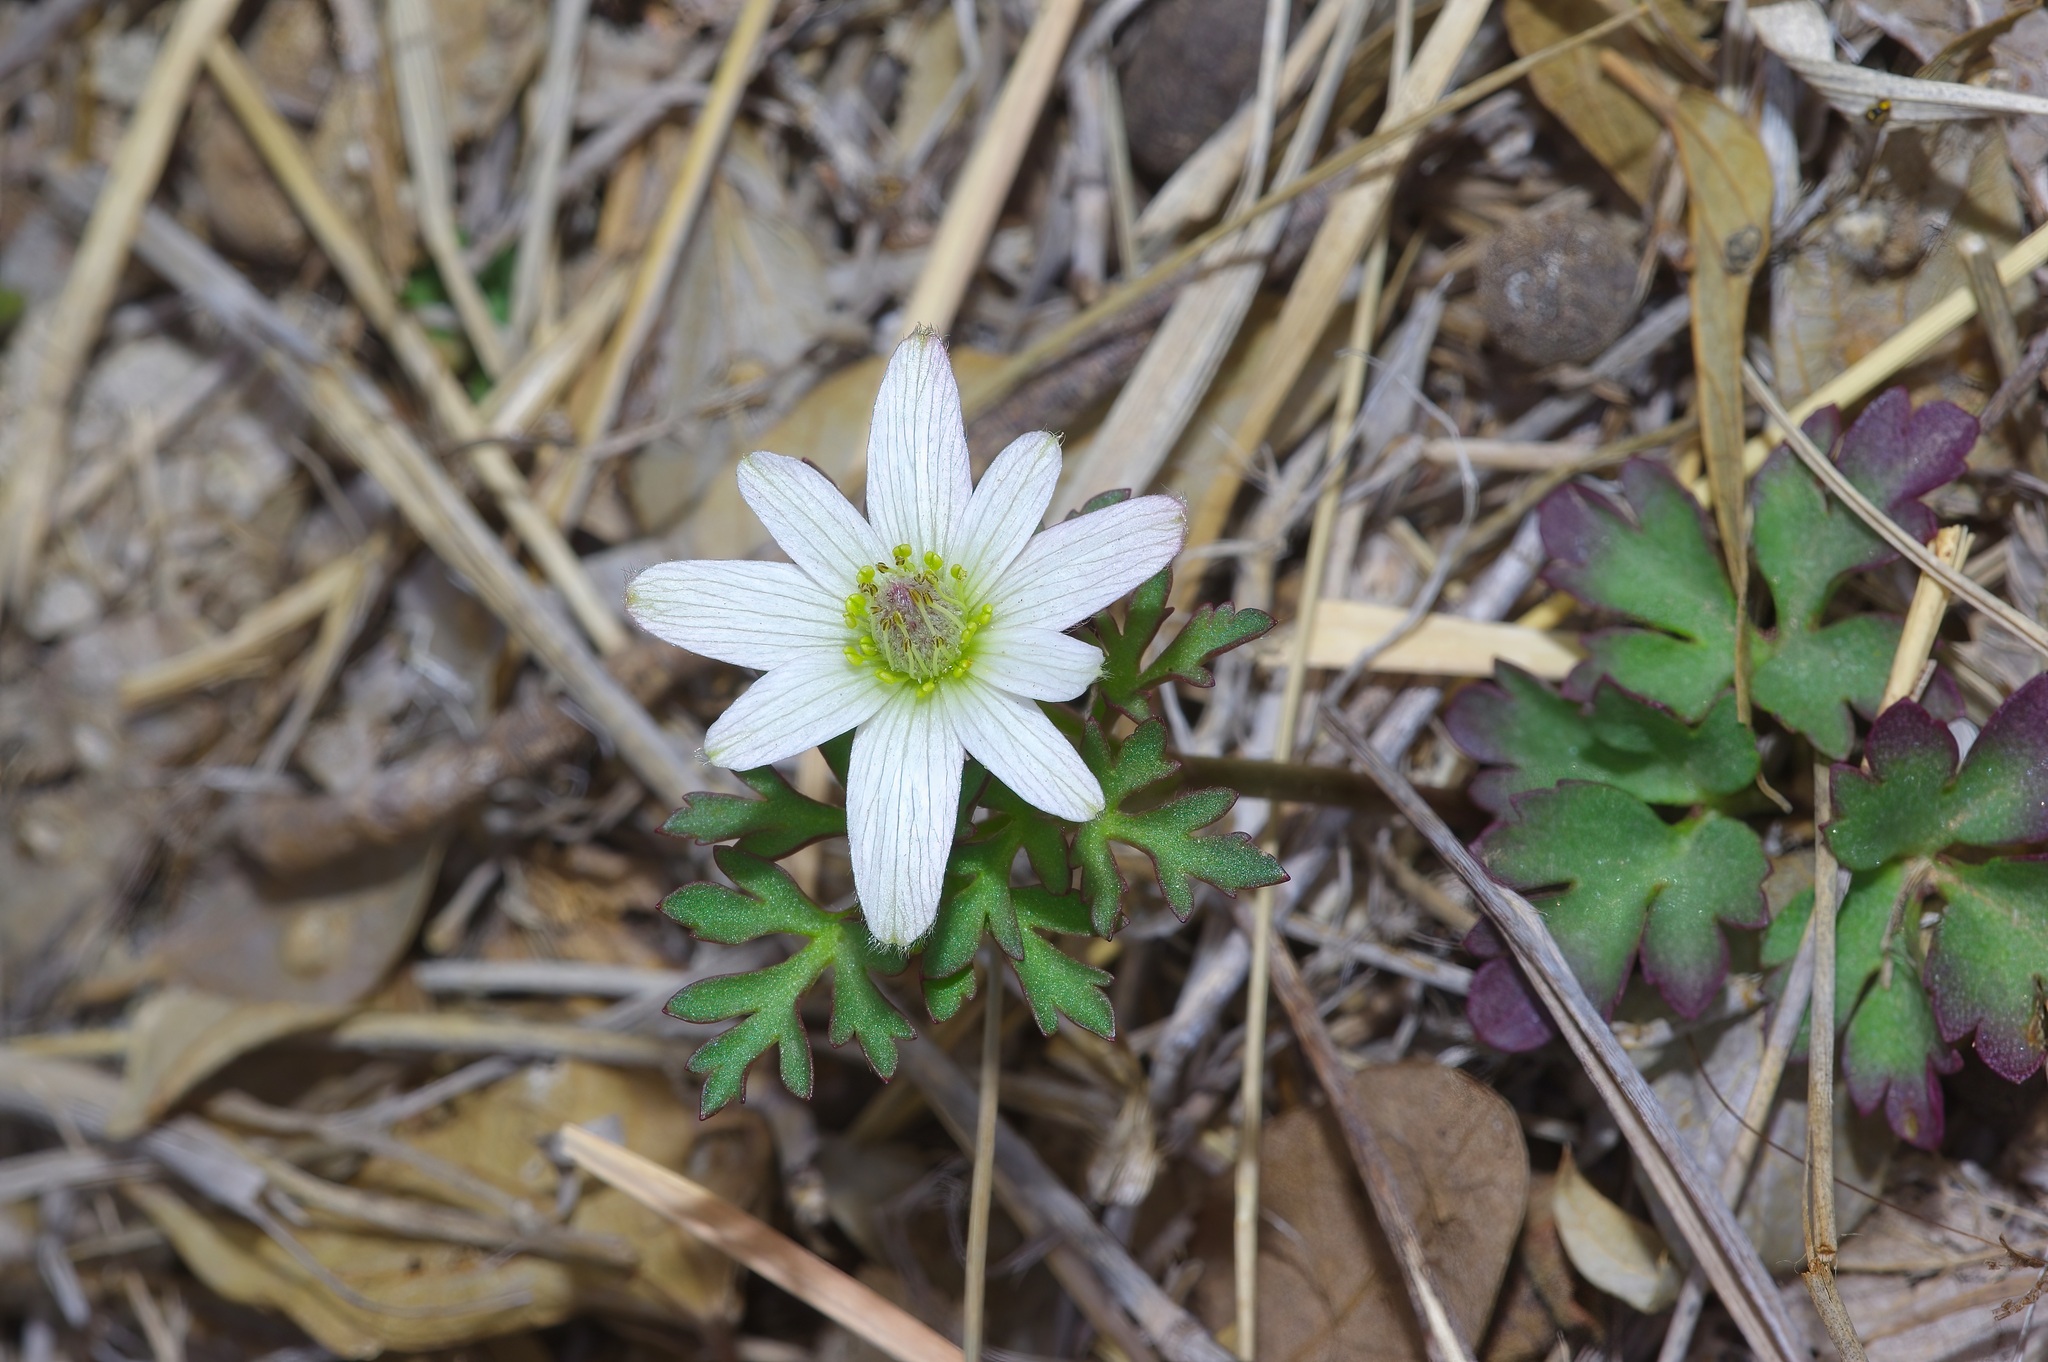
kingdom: Plantae
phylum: Tracheophyta
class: Magnoliopsida
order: Ranunculales
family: Ranunculaceae
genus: Anemone
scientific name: Anemone tuberosa
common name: Desert anemone
